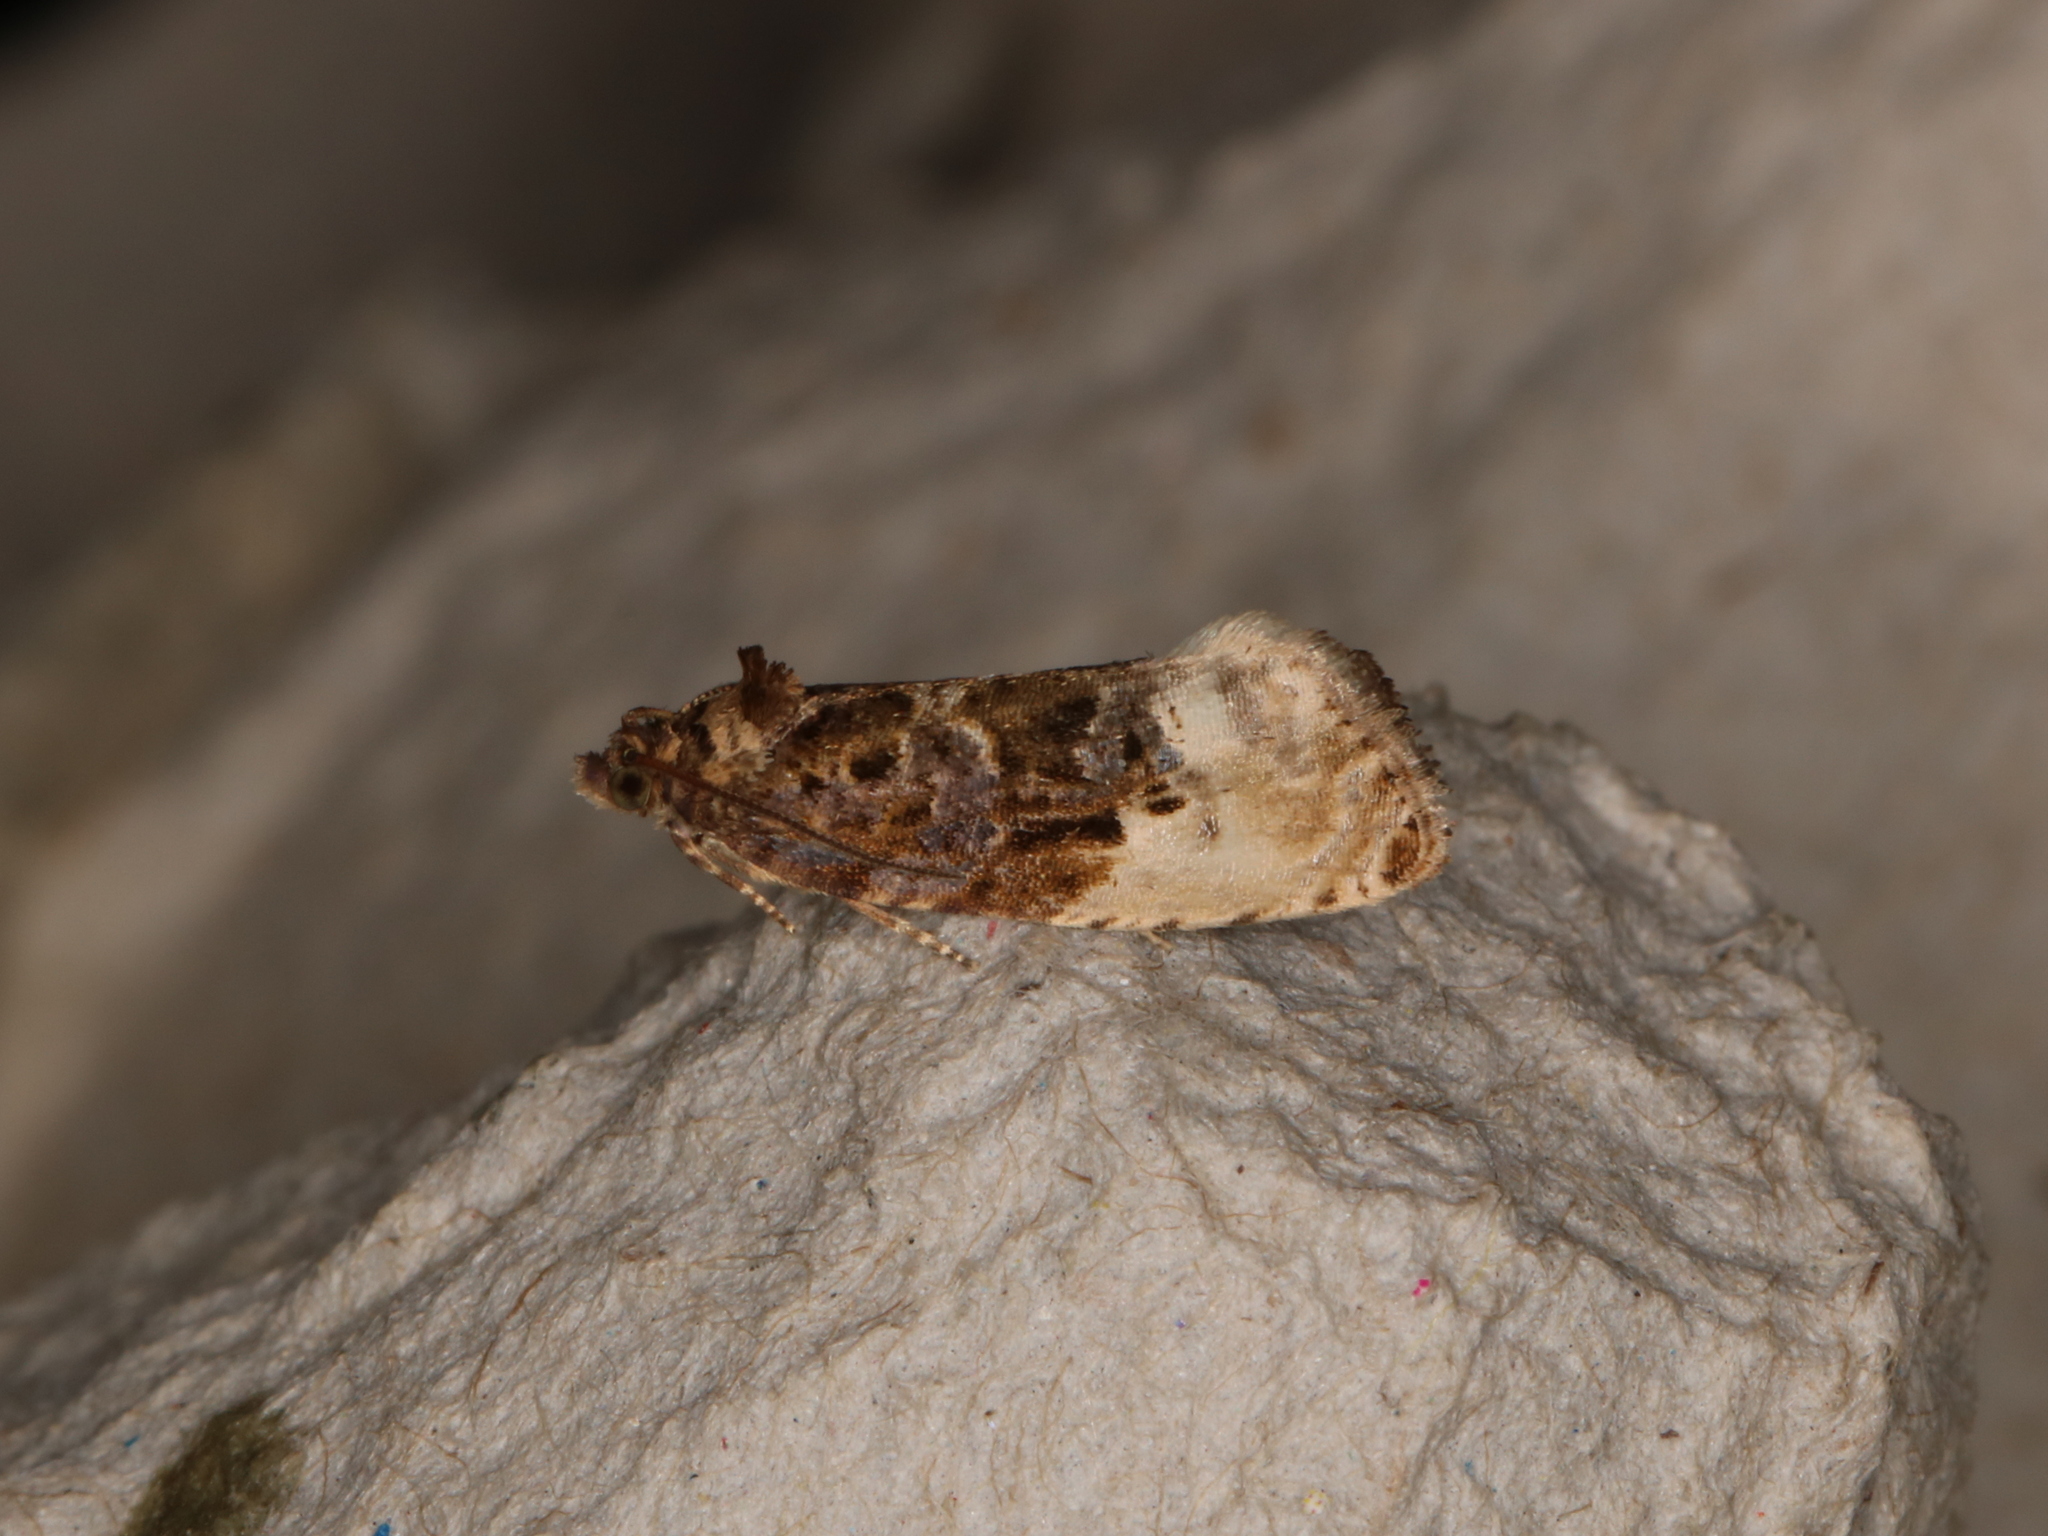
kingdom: Animalia
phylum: Arthropoda
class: Insecta
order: Lepidoptera
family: Tortricidae
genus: Hedya
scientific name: Hedya nubiferana
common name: Marbled orchard tortrix
